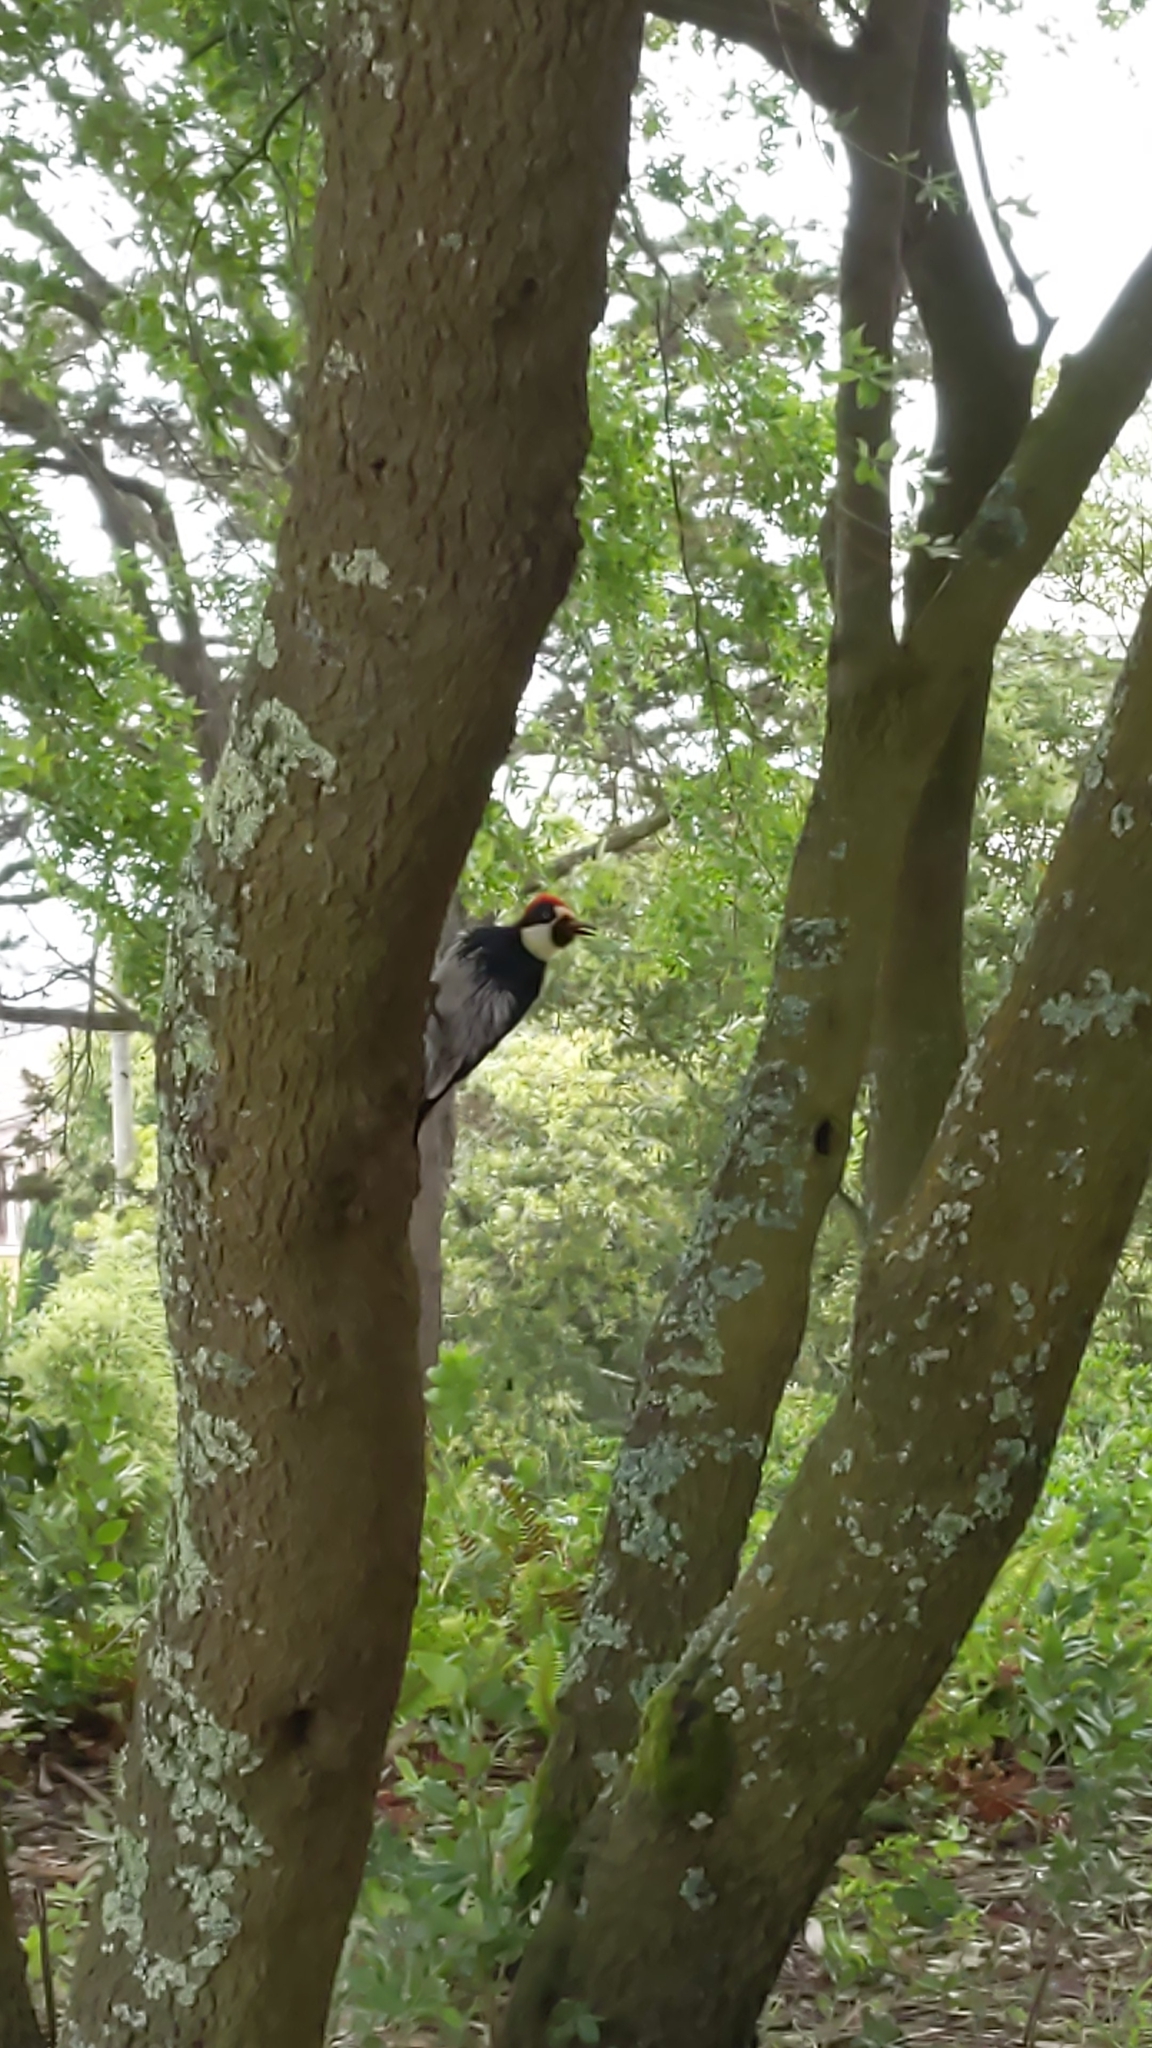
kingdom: Animalia
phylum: Chordata
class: Aves
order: Piciformes
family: Picidae
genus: Melanerpes
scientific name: Melanerpes formicivorus
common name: Acorn woodpecker
